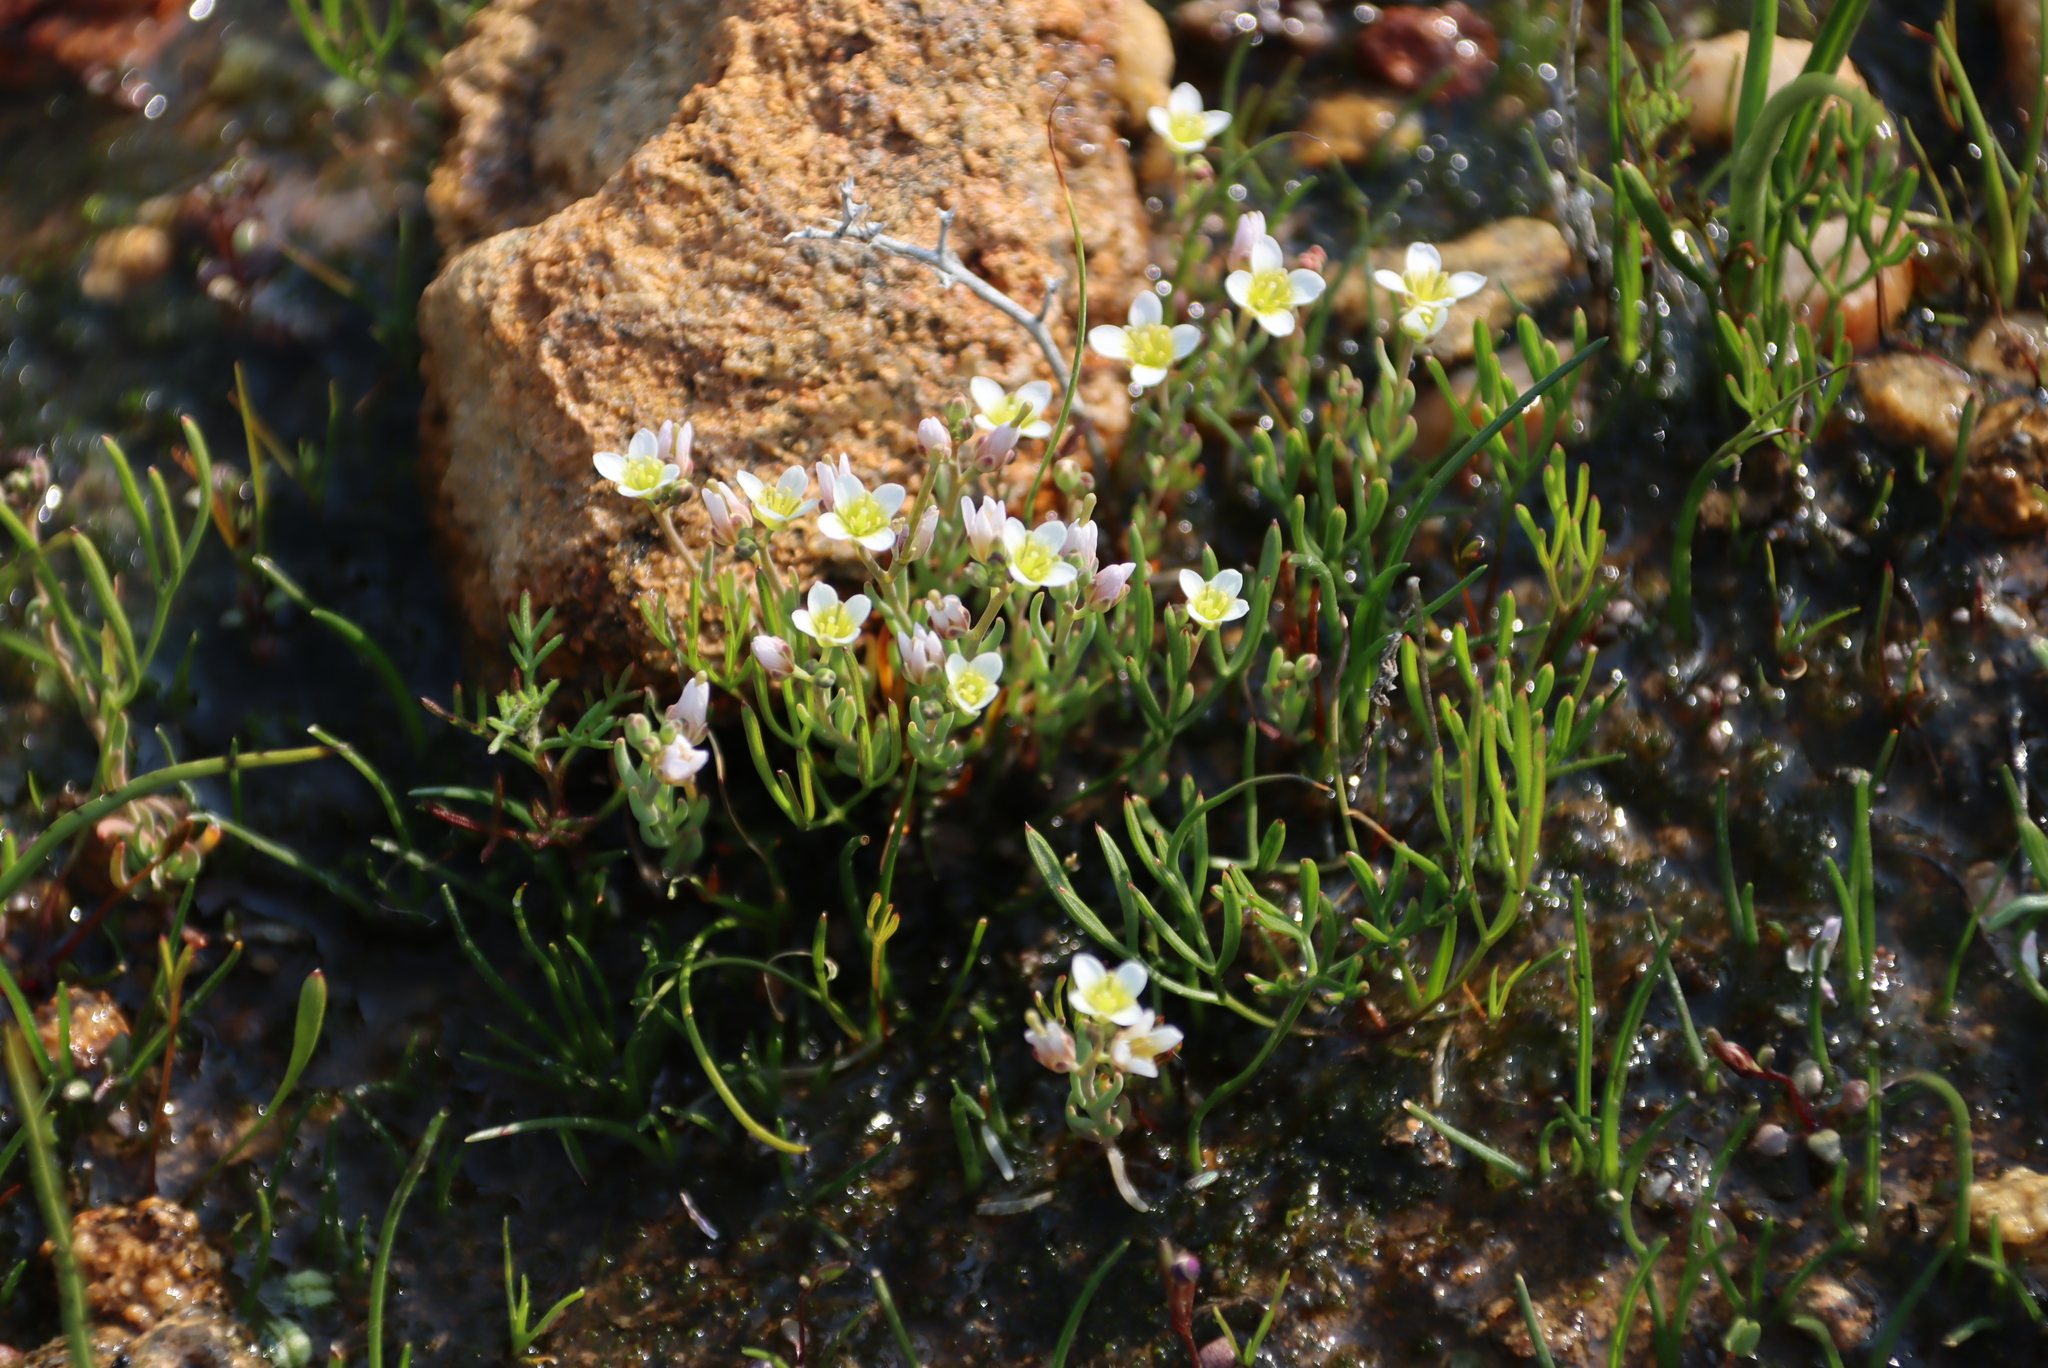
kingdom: Plantae
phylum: Tracheophyta
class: Magnoliopsida
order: Brassicales
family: Brassicaceae
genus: Heliophila
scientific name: Heliophila namaquana
